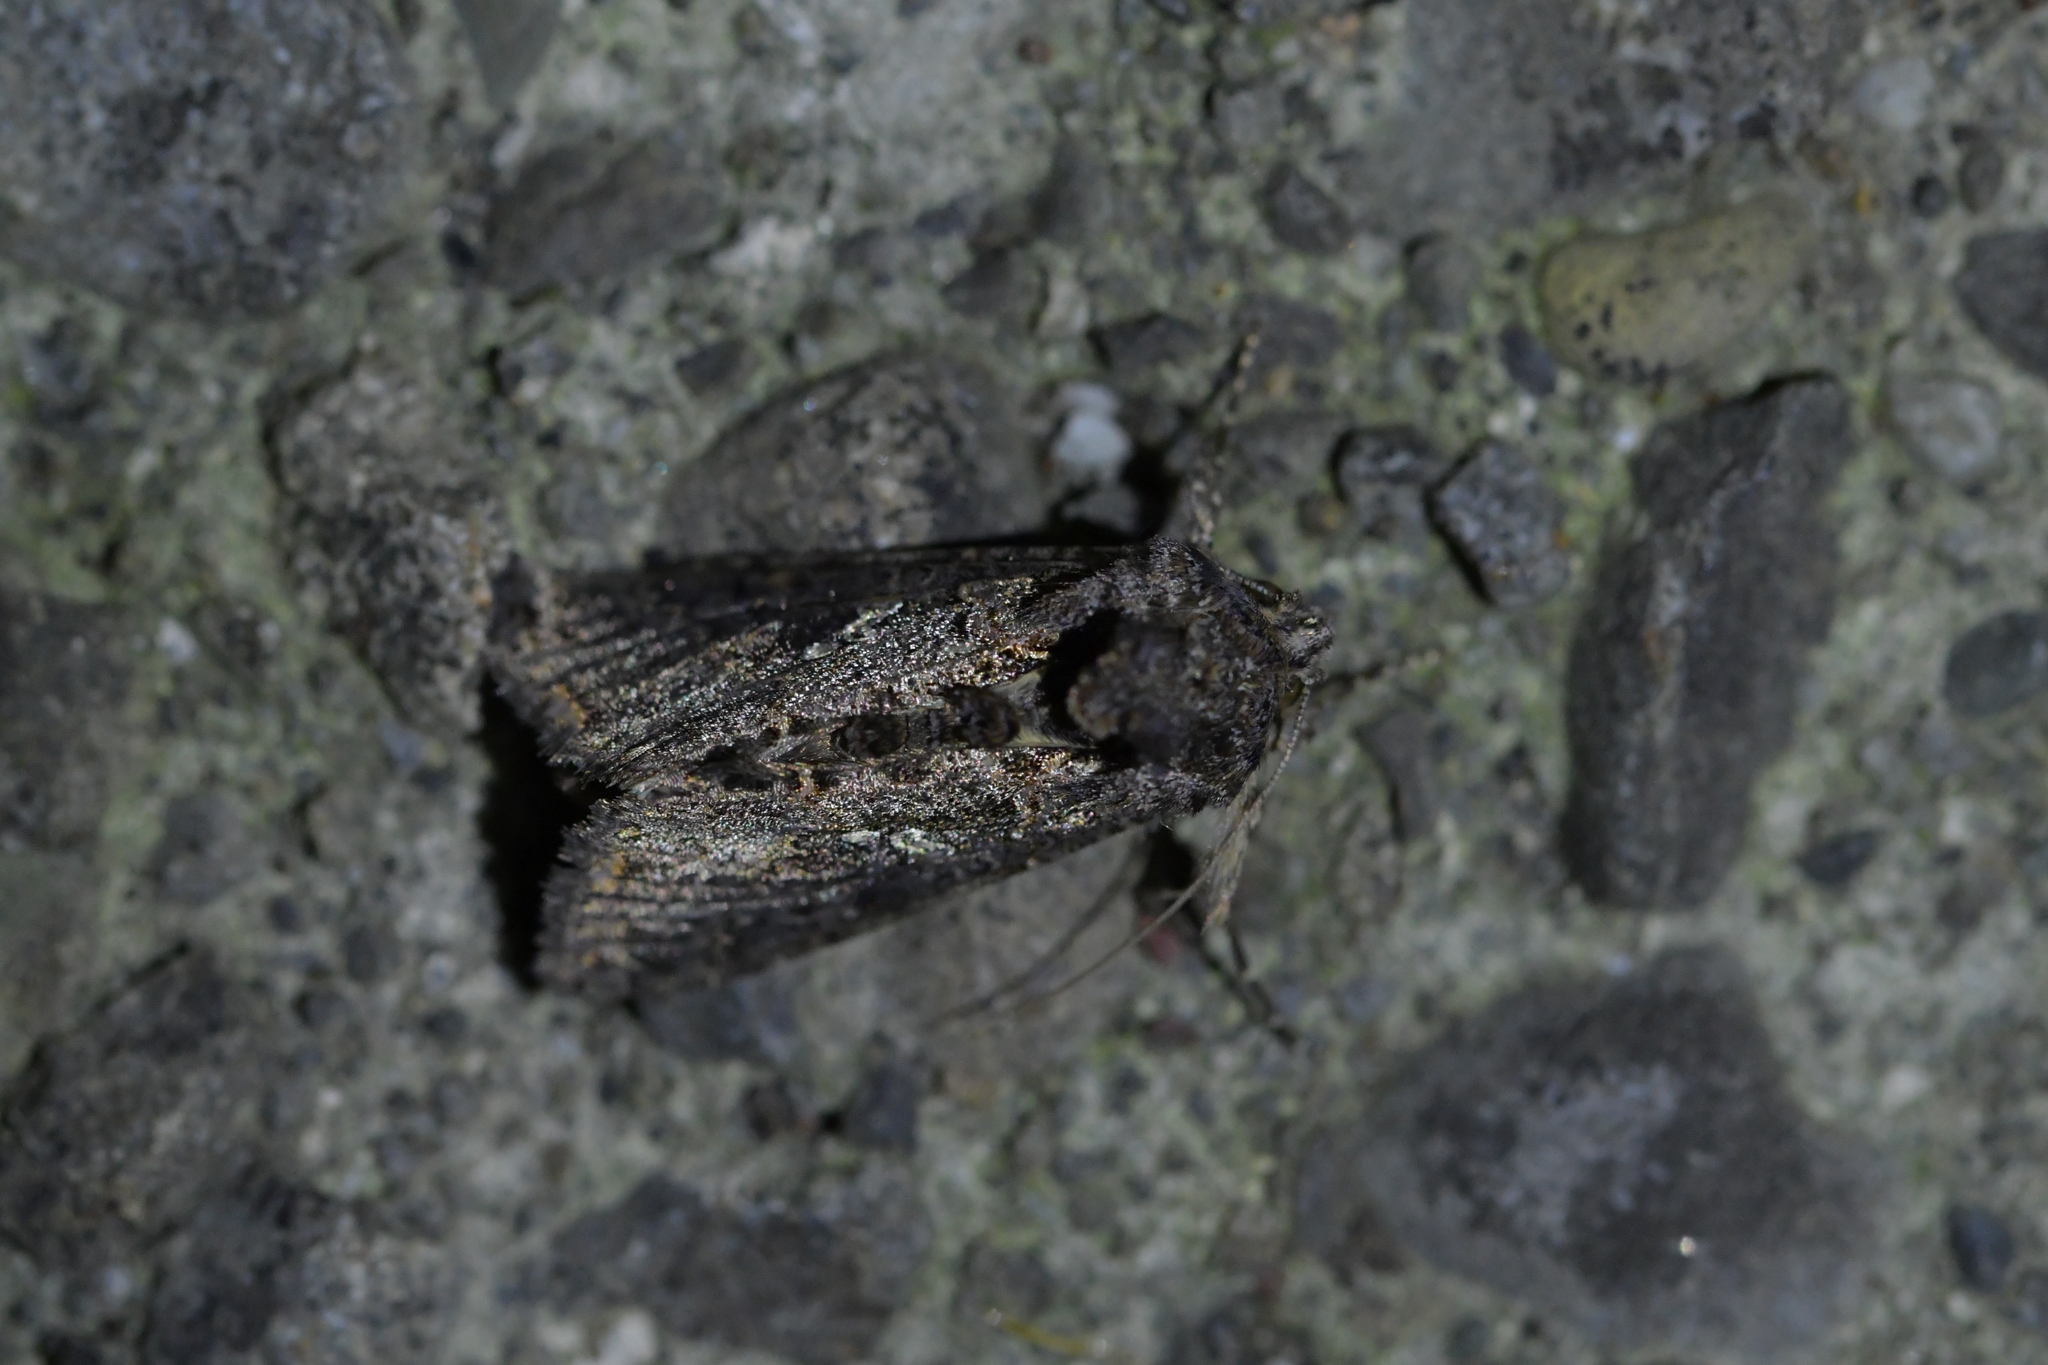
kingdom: Animalia
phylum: Arthropoda
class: Insecta
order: Lepidoptera
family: Noctuidae
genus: Ctenoplusia
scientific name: Ctenoplusia limbirena
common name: Scar bank gem
